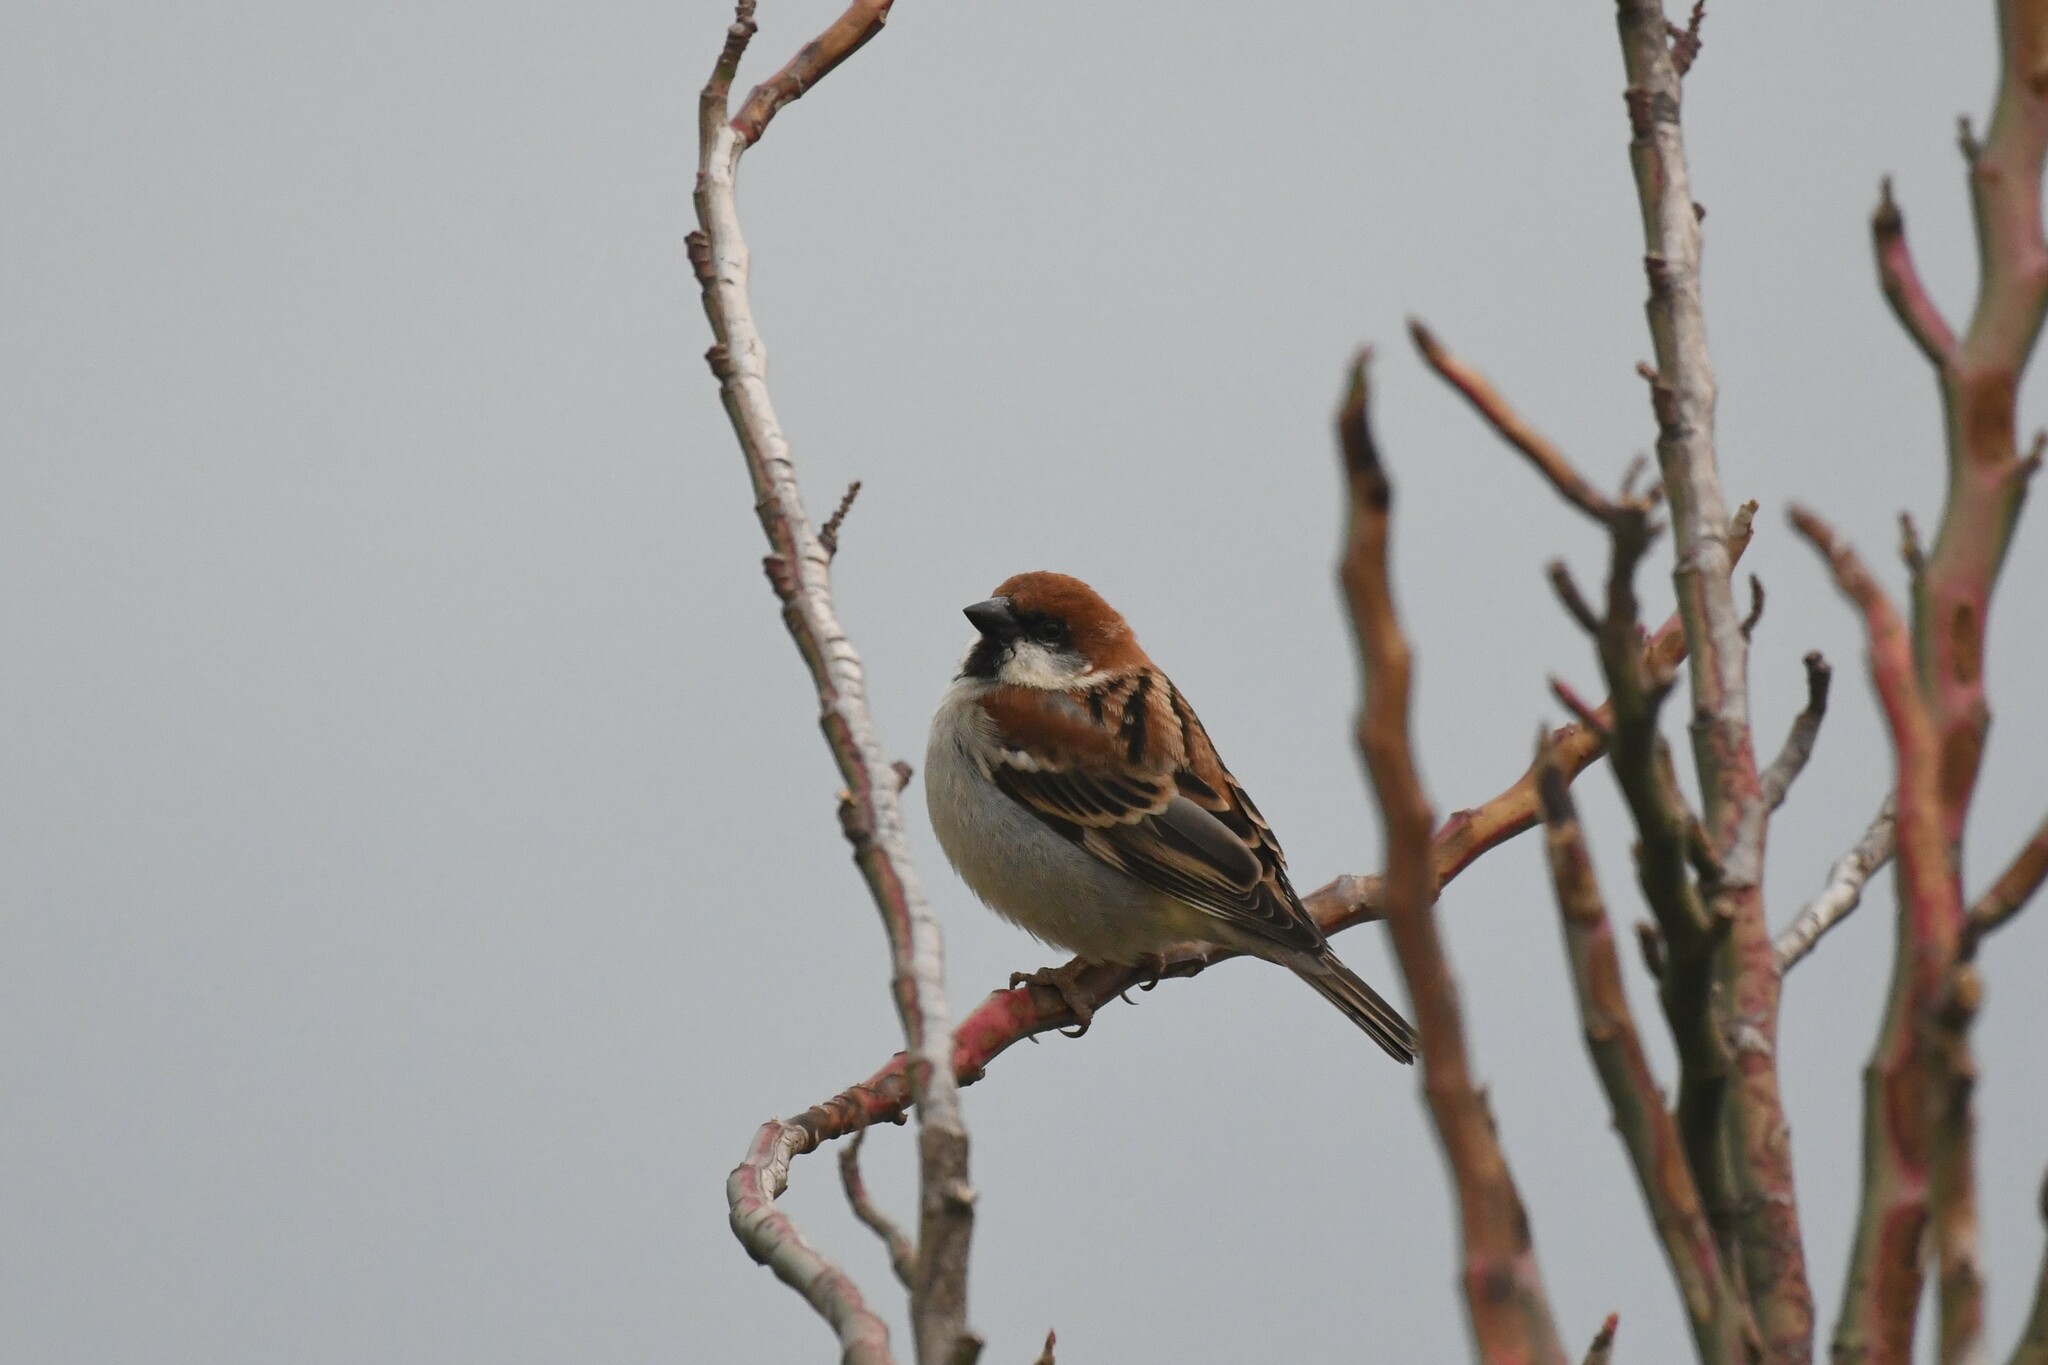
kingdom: Animalia
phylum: Chordata
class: Aves
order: Passeriformes
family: Passeridae
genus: Passer
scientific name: Passer cinnamomeus
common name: Russet sparrow
